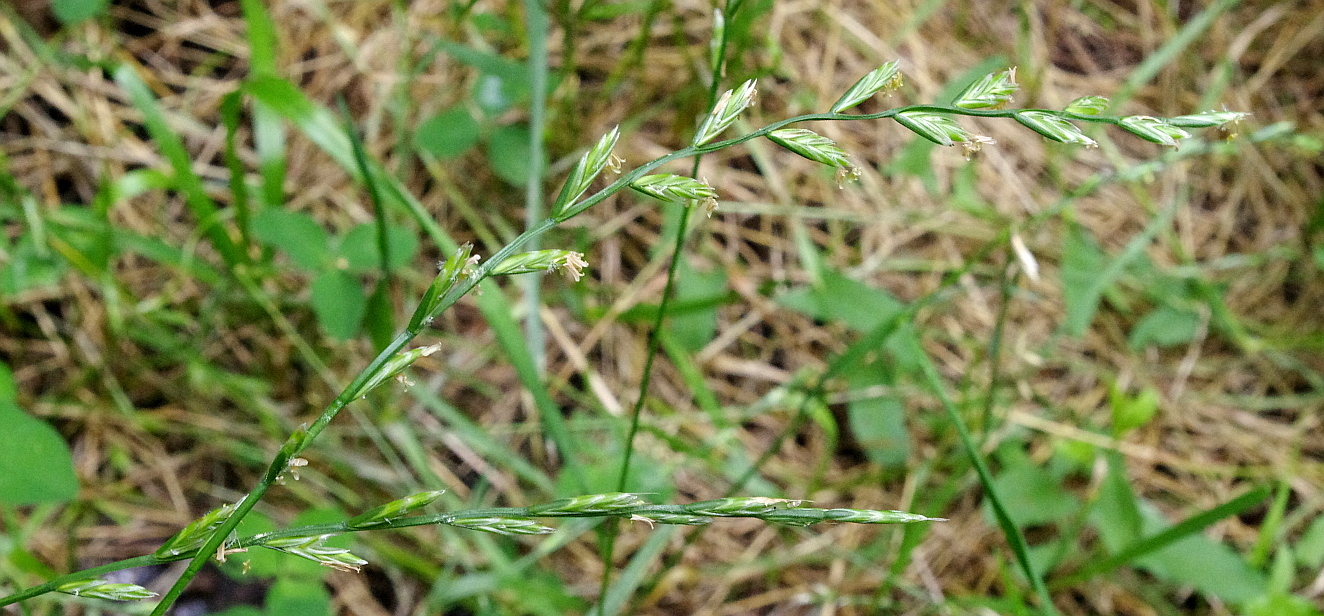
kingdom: Plantae
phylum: Tracheophyta
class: Liliopsida
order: Poales
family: Poaceae
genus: Lolium
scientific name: Lolium perenne
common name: Perennial ryegrass
